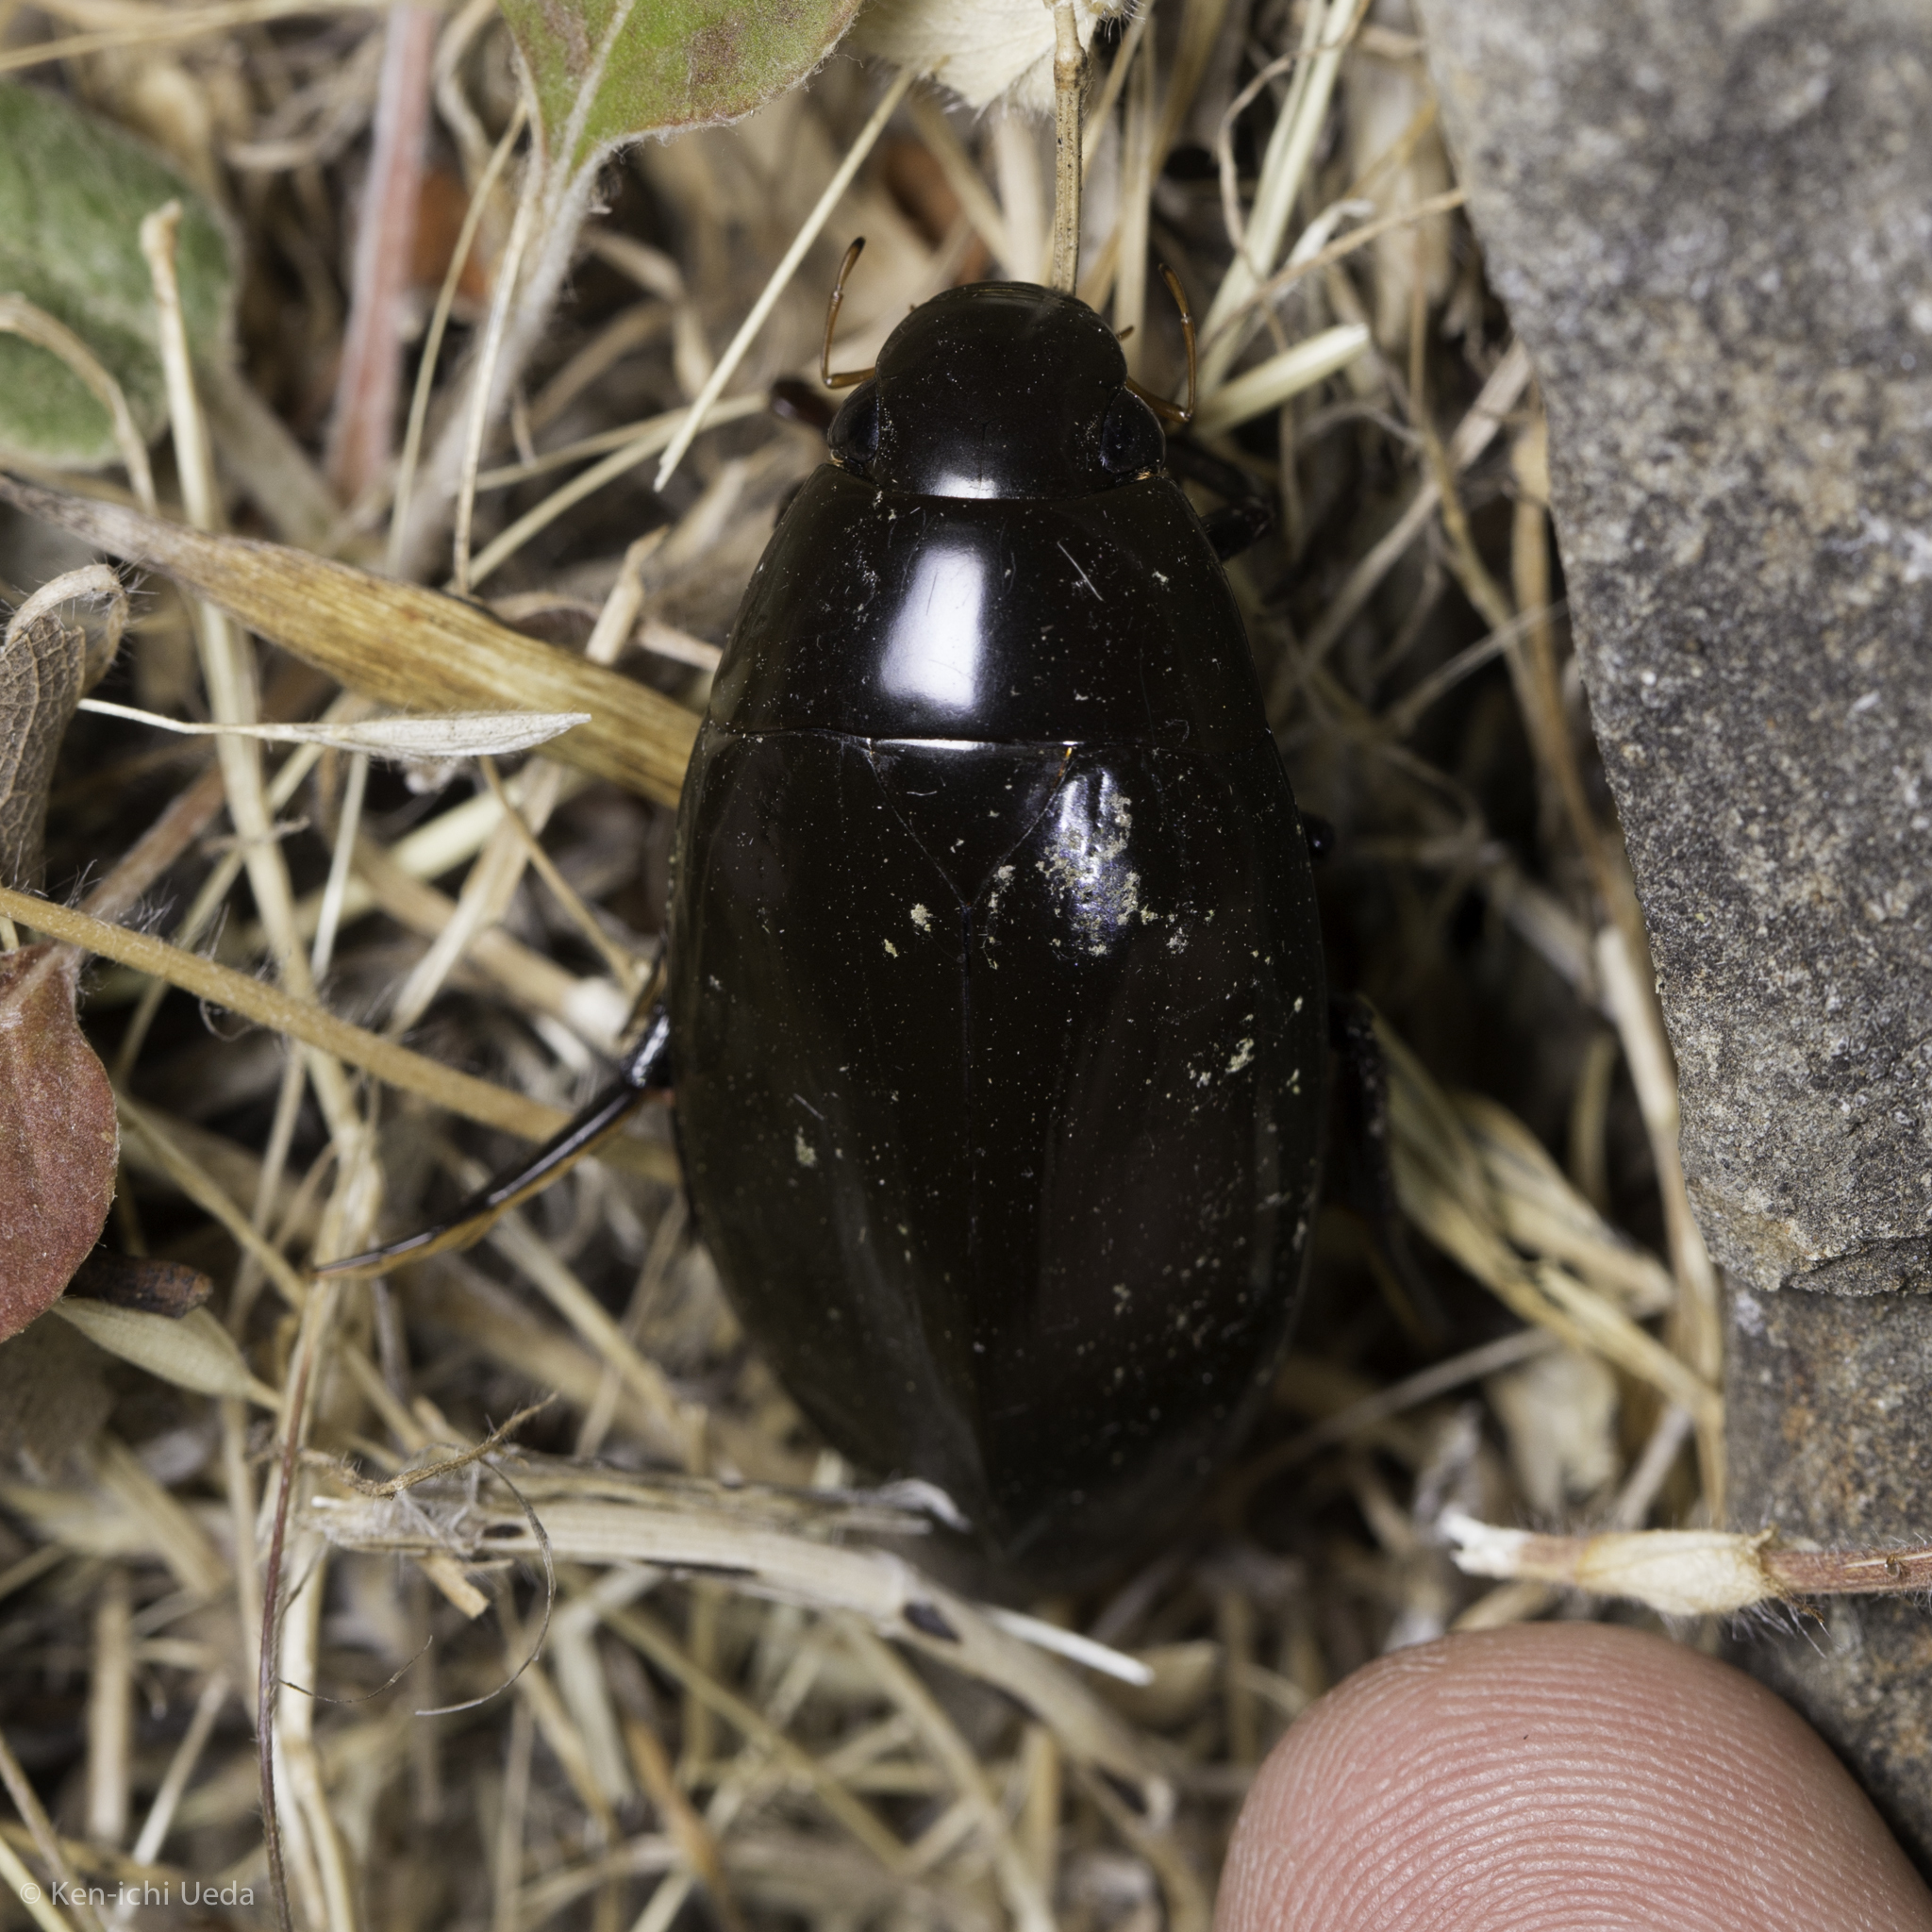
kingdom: Animalia
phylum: Arthropoda
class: Insecta
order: Coleoptera
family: Hydrophilidae
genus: Hydrophilus
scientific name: Hydrophilus triangularis
